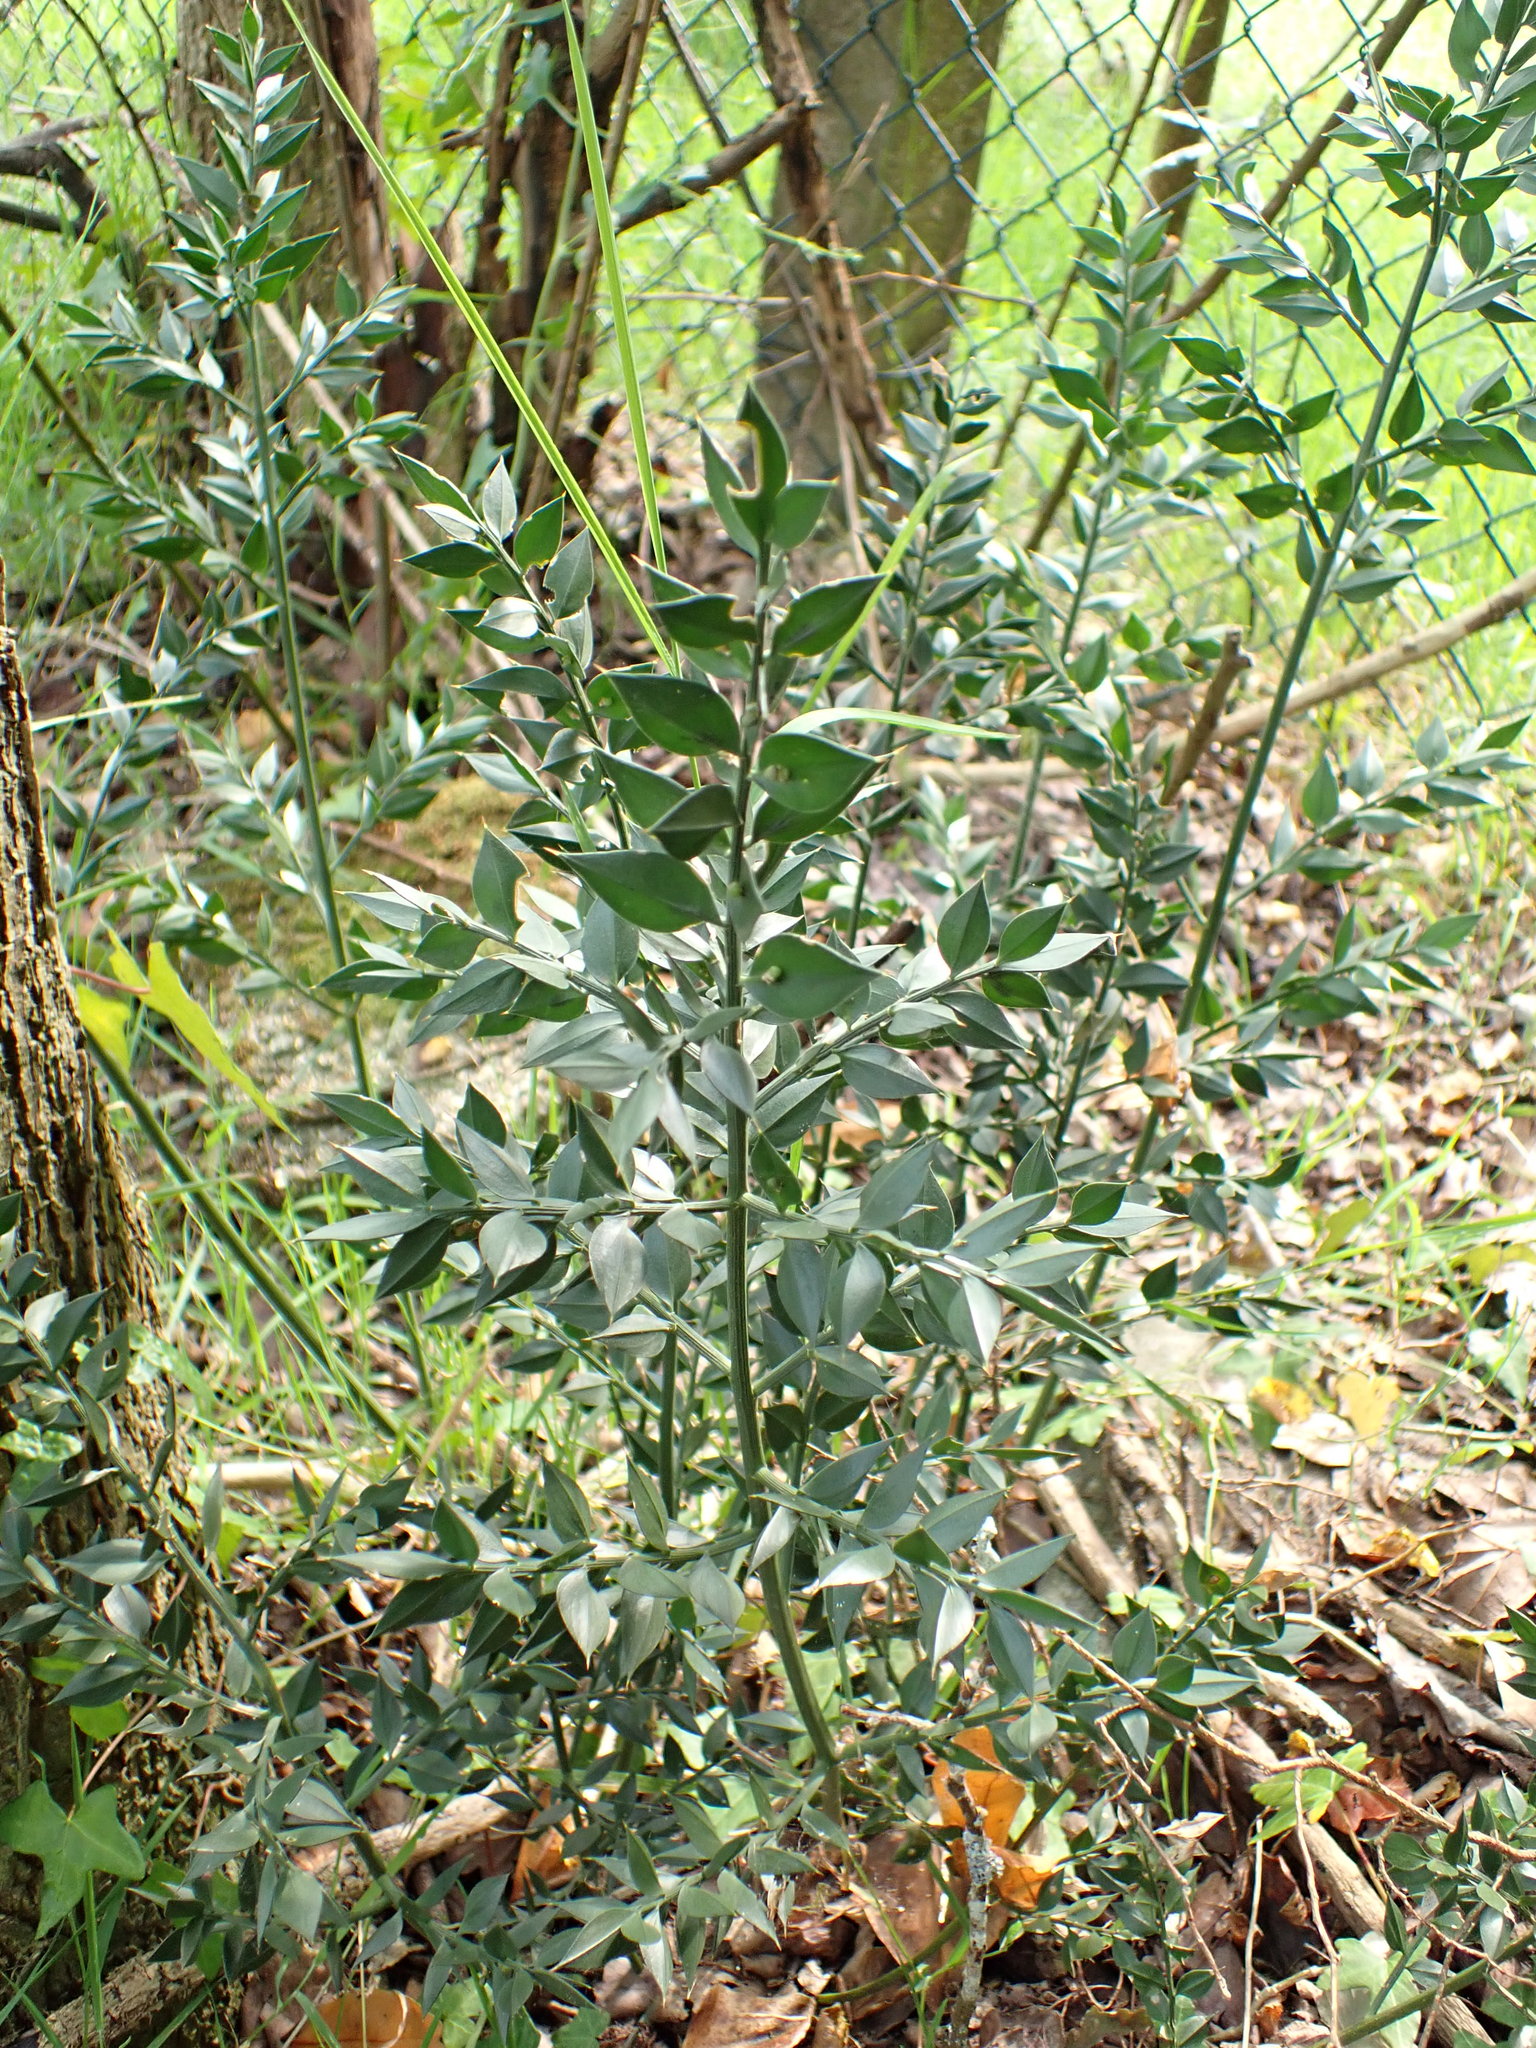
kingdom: Plantae
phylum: Tracheophyta
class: Liliopsida
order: Asparagales
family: Asparagaceae
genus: Ruscus
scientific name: Ruscus aculeatus
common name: Butcher's-broom
